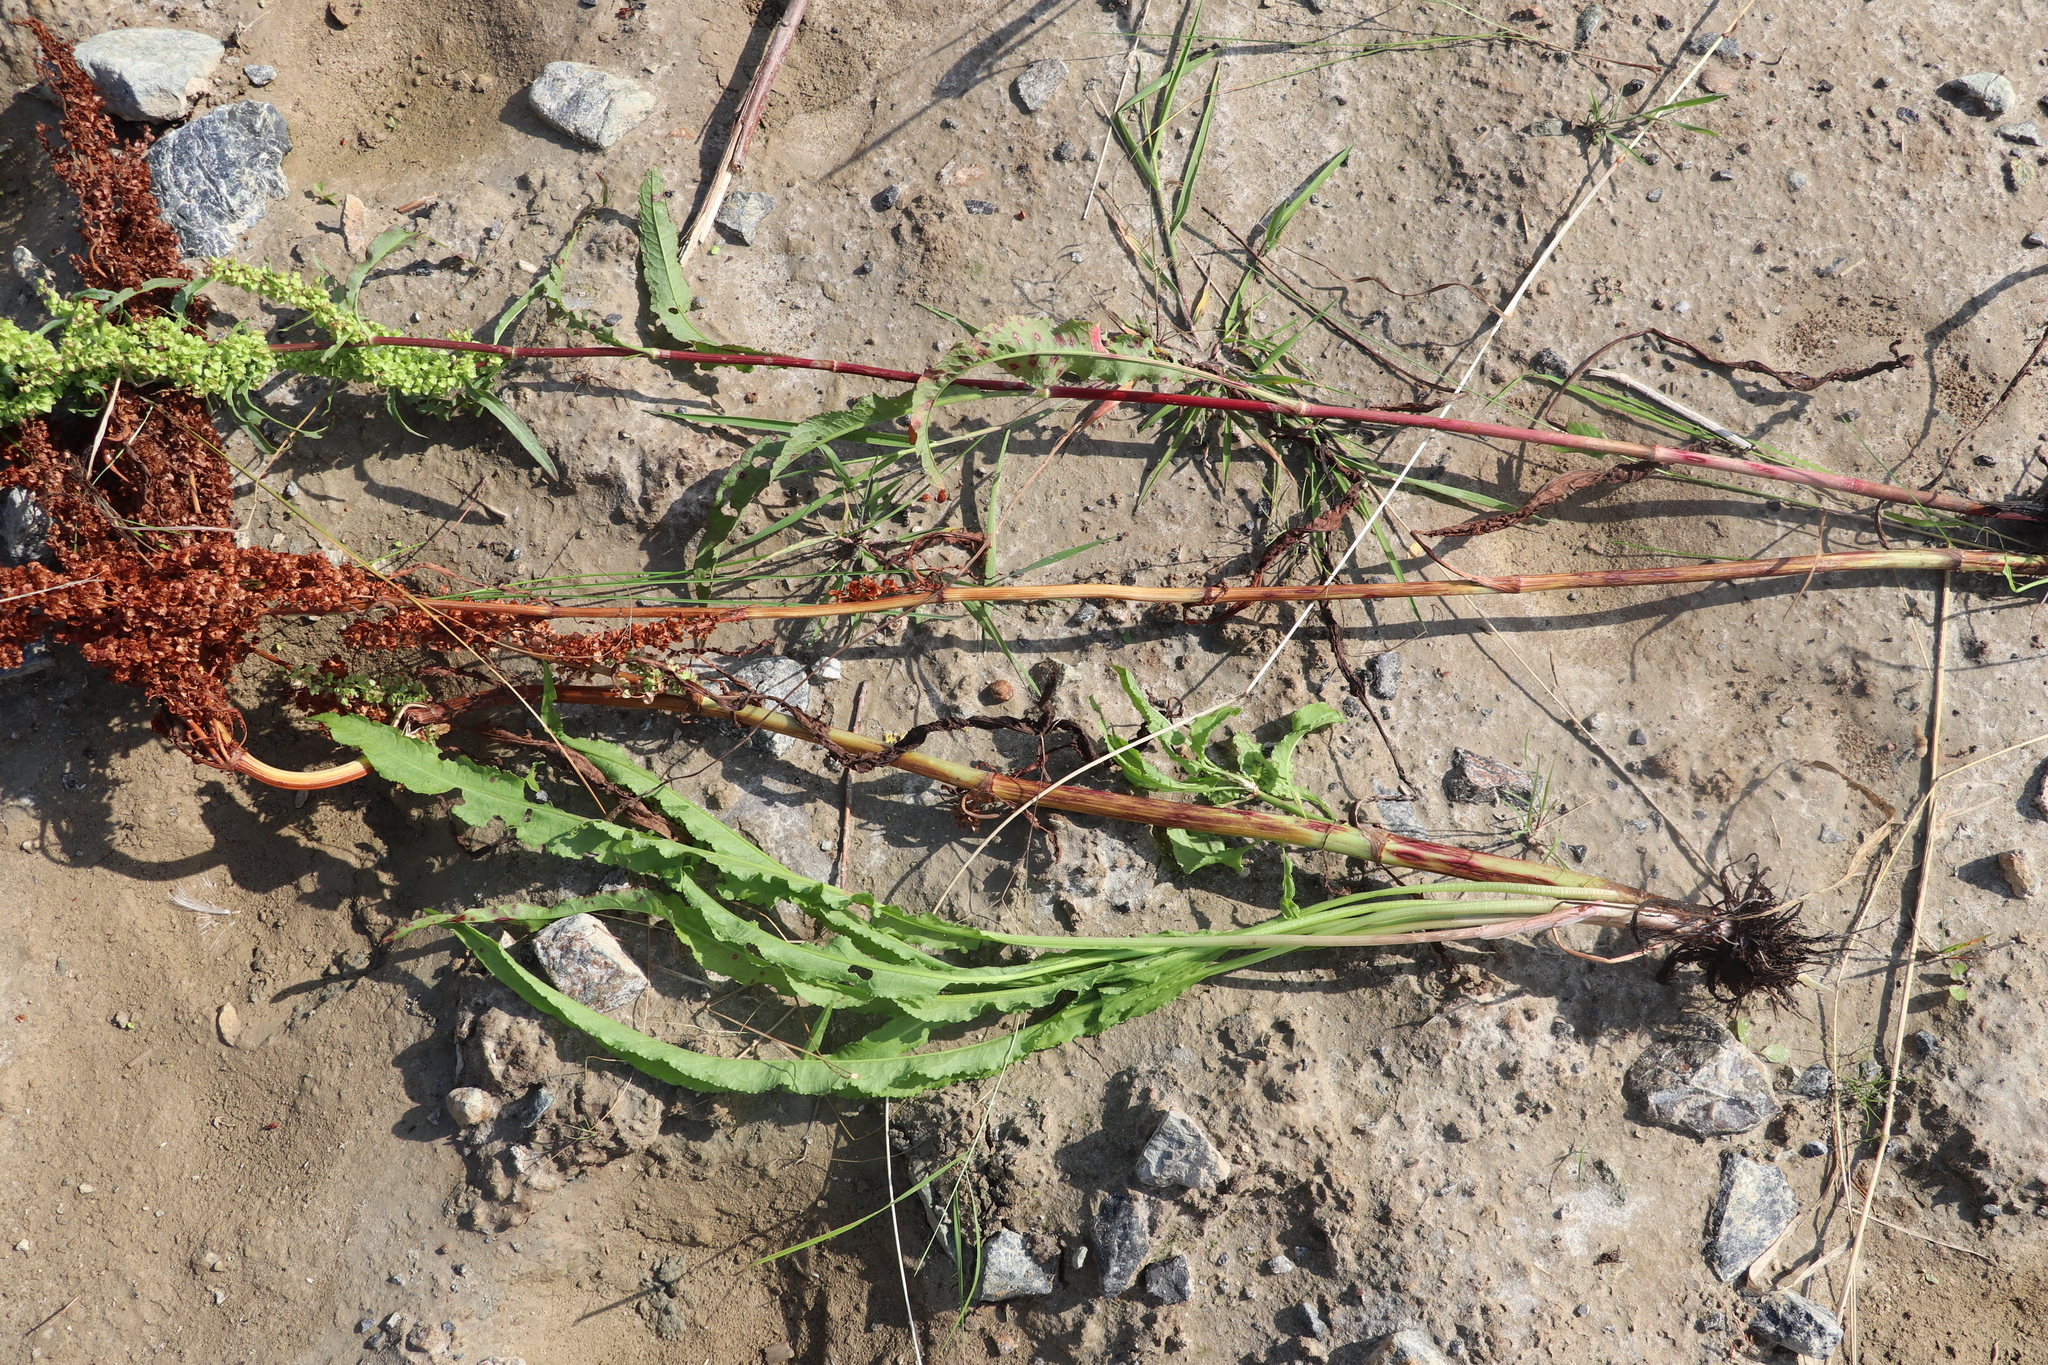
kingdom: Plantae
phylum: Tracheophyta
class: Magnoliopsida
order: Caryophyllales
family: Polygonaceae
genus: Rumex
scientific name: Rumex pseudonatronatus
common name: Field dock
